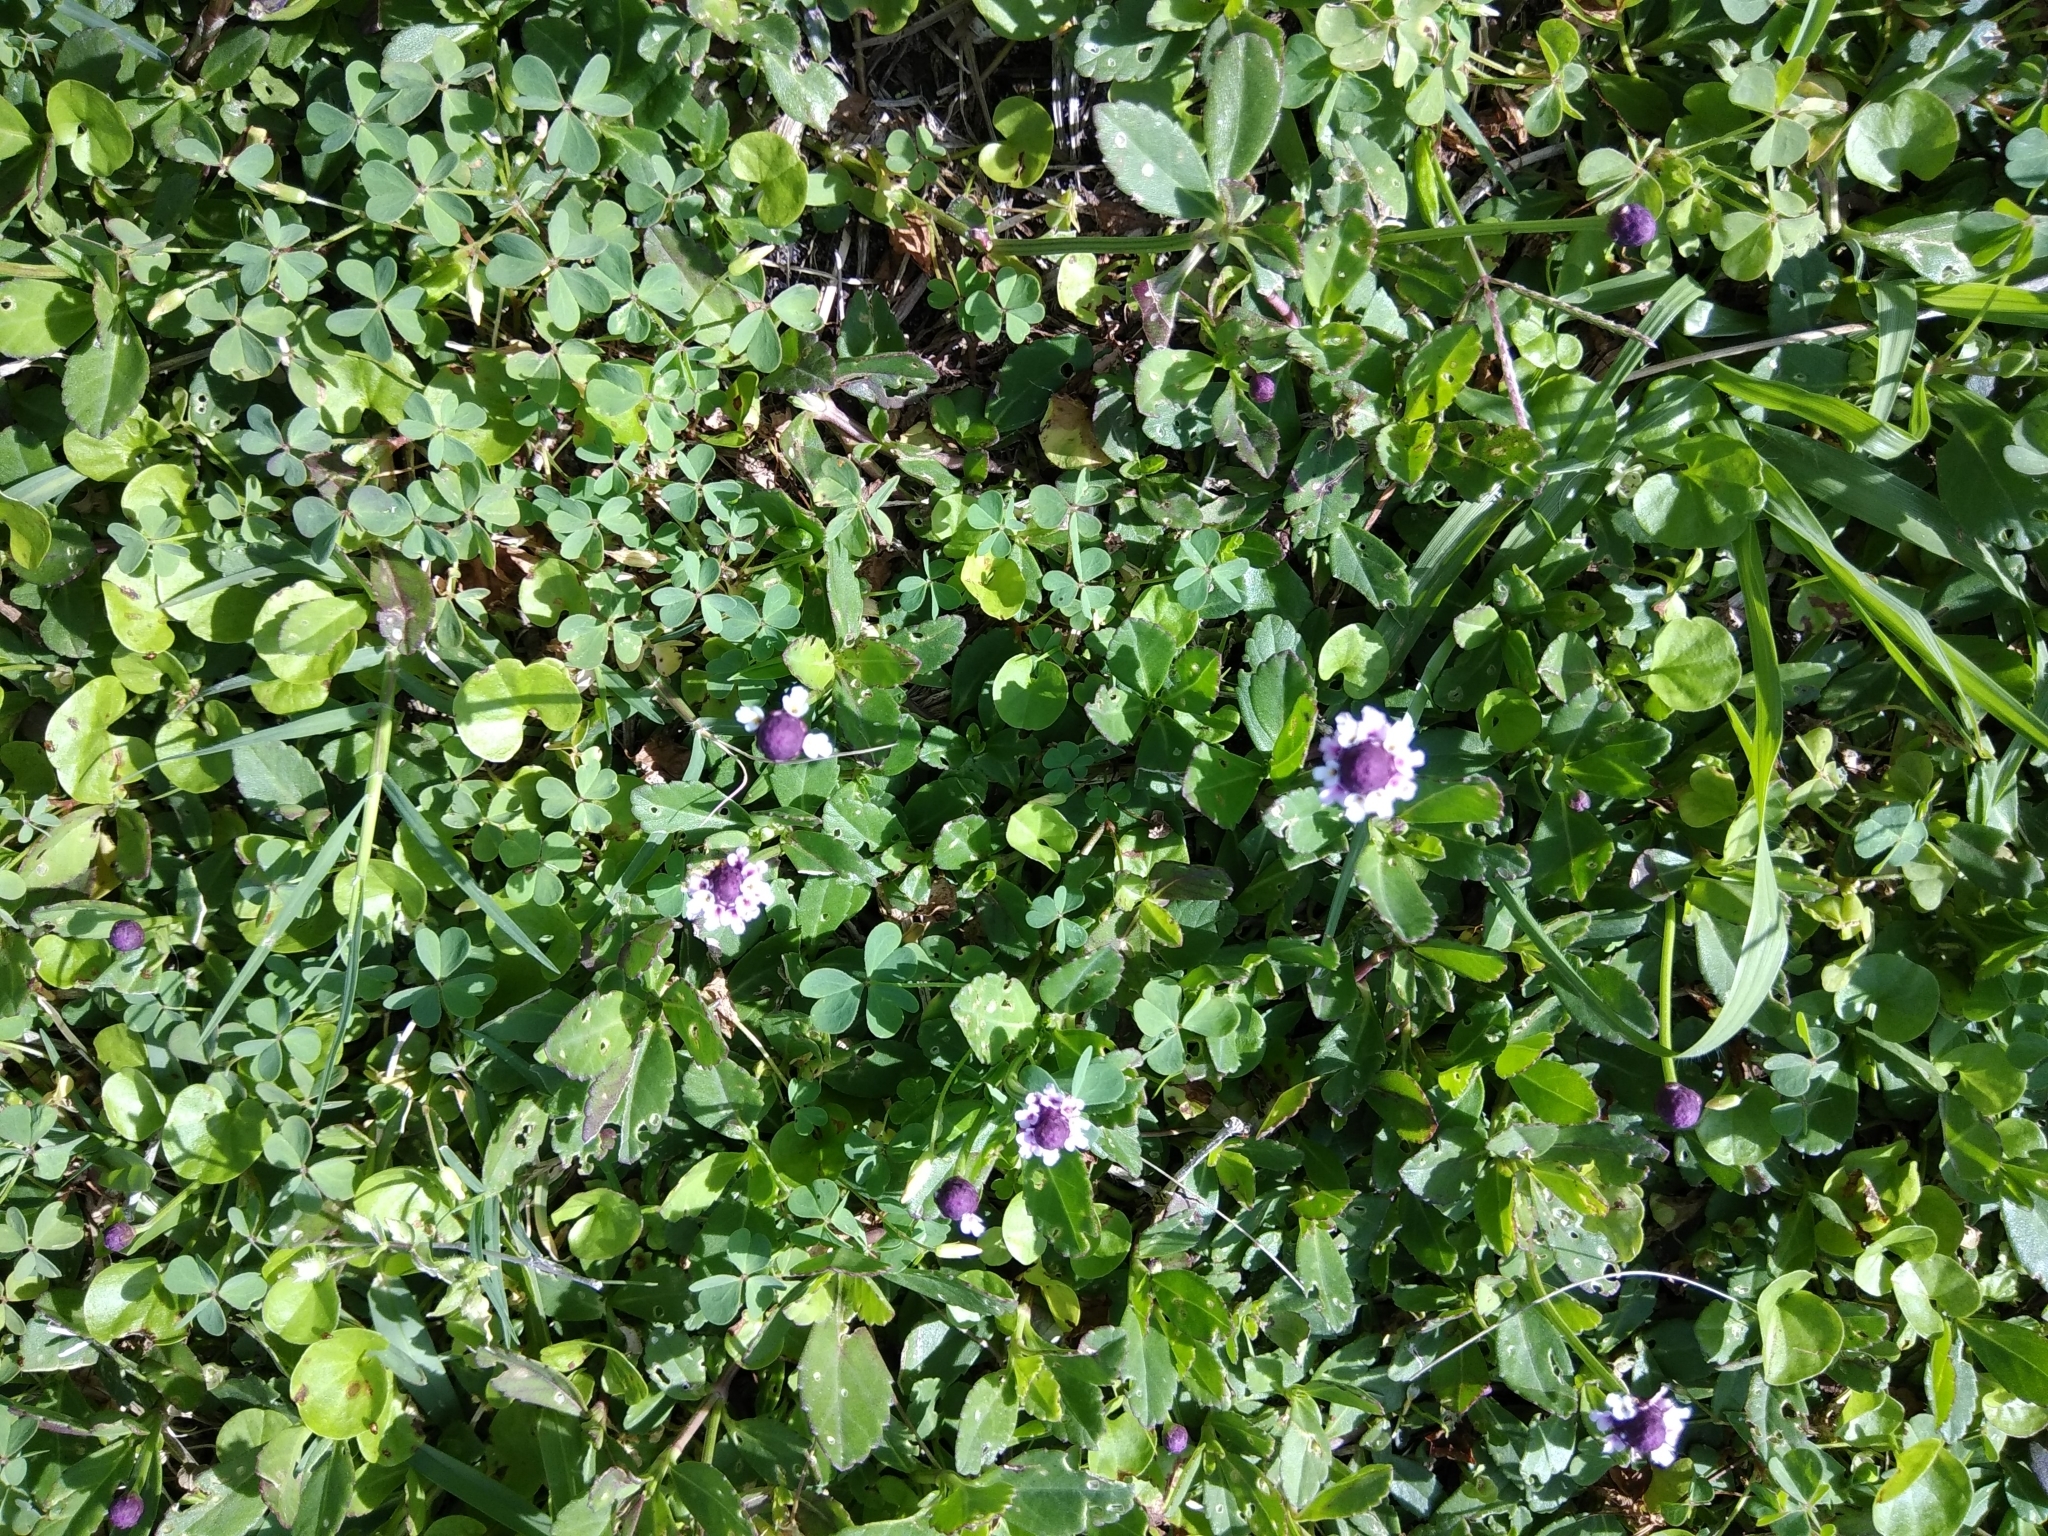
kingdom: Plantae
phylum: Tracheophyta
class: Magnoliopsida
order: Lamiales
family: Verbenaceae
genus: Phyla
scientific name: Phyla nodiflora
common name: Frogfruit
